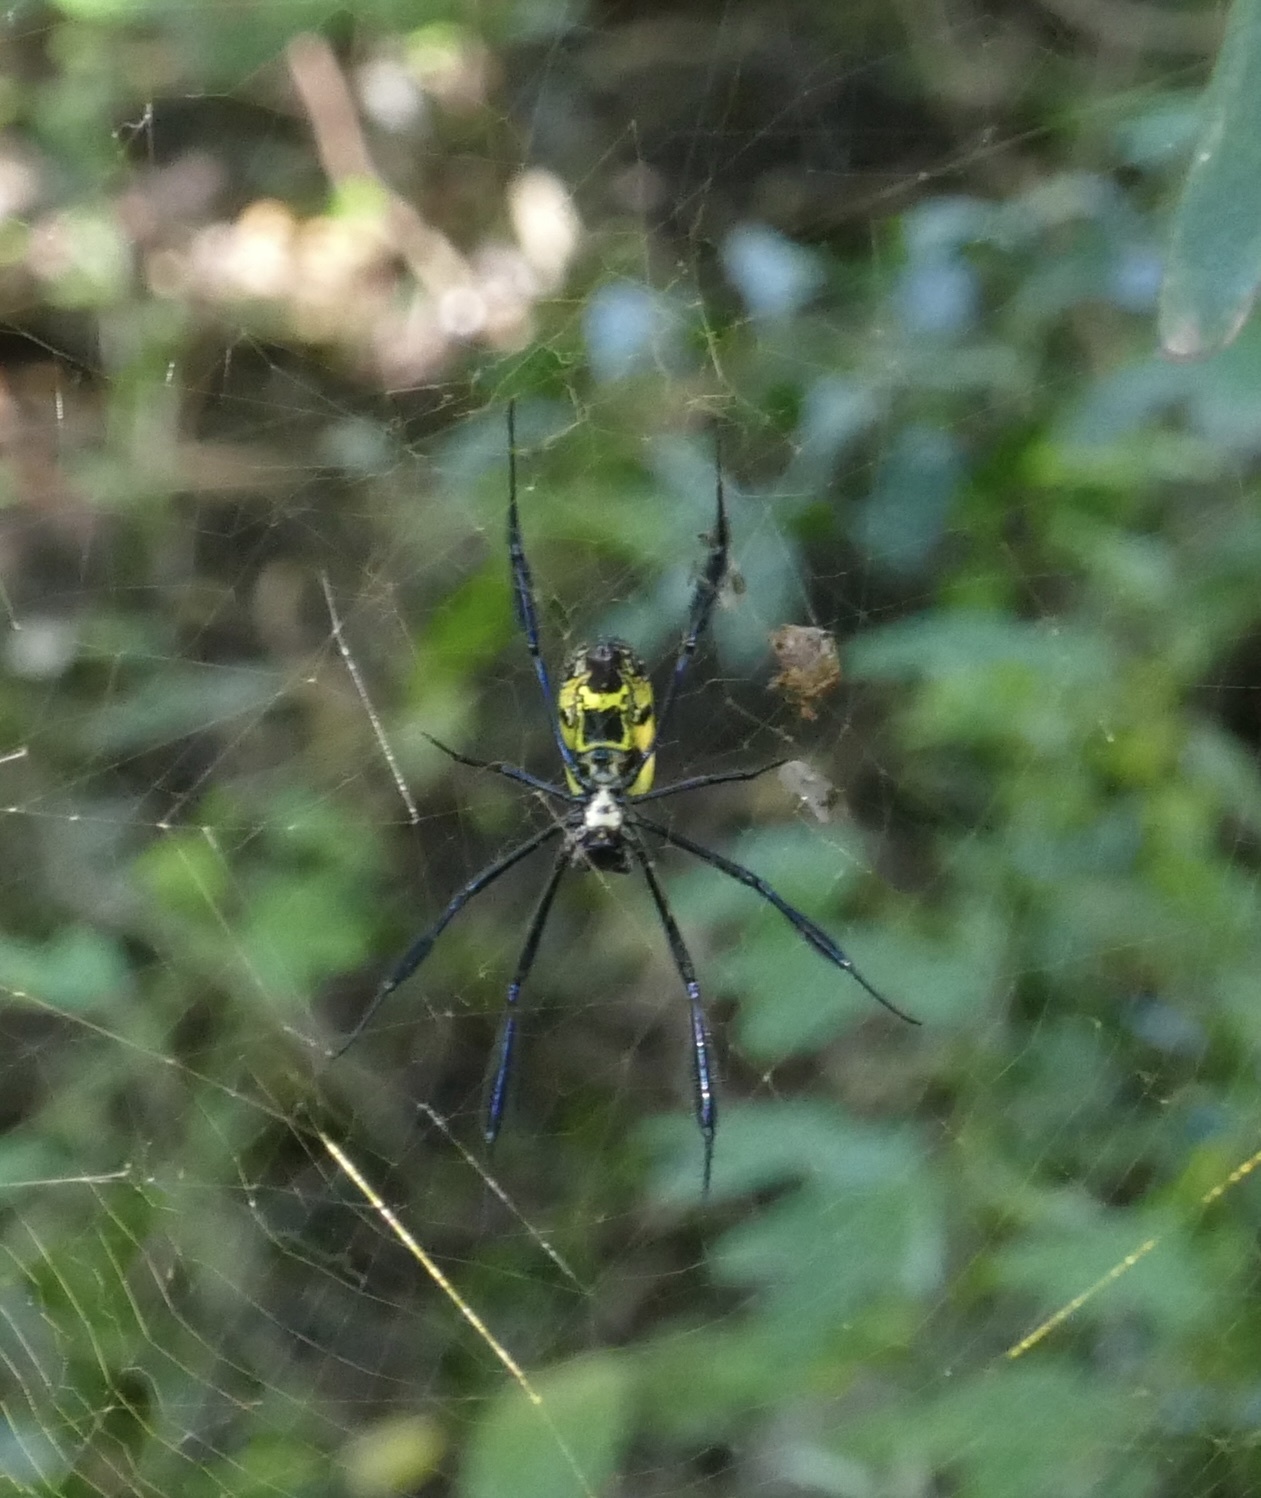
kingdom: Animalia
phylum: Arthropoda
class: Arachnida
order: Araneae
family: Araneidae
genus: Trichonephila
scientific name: Trichonephila fenestrata
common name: Hairy golden orb weaver
